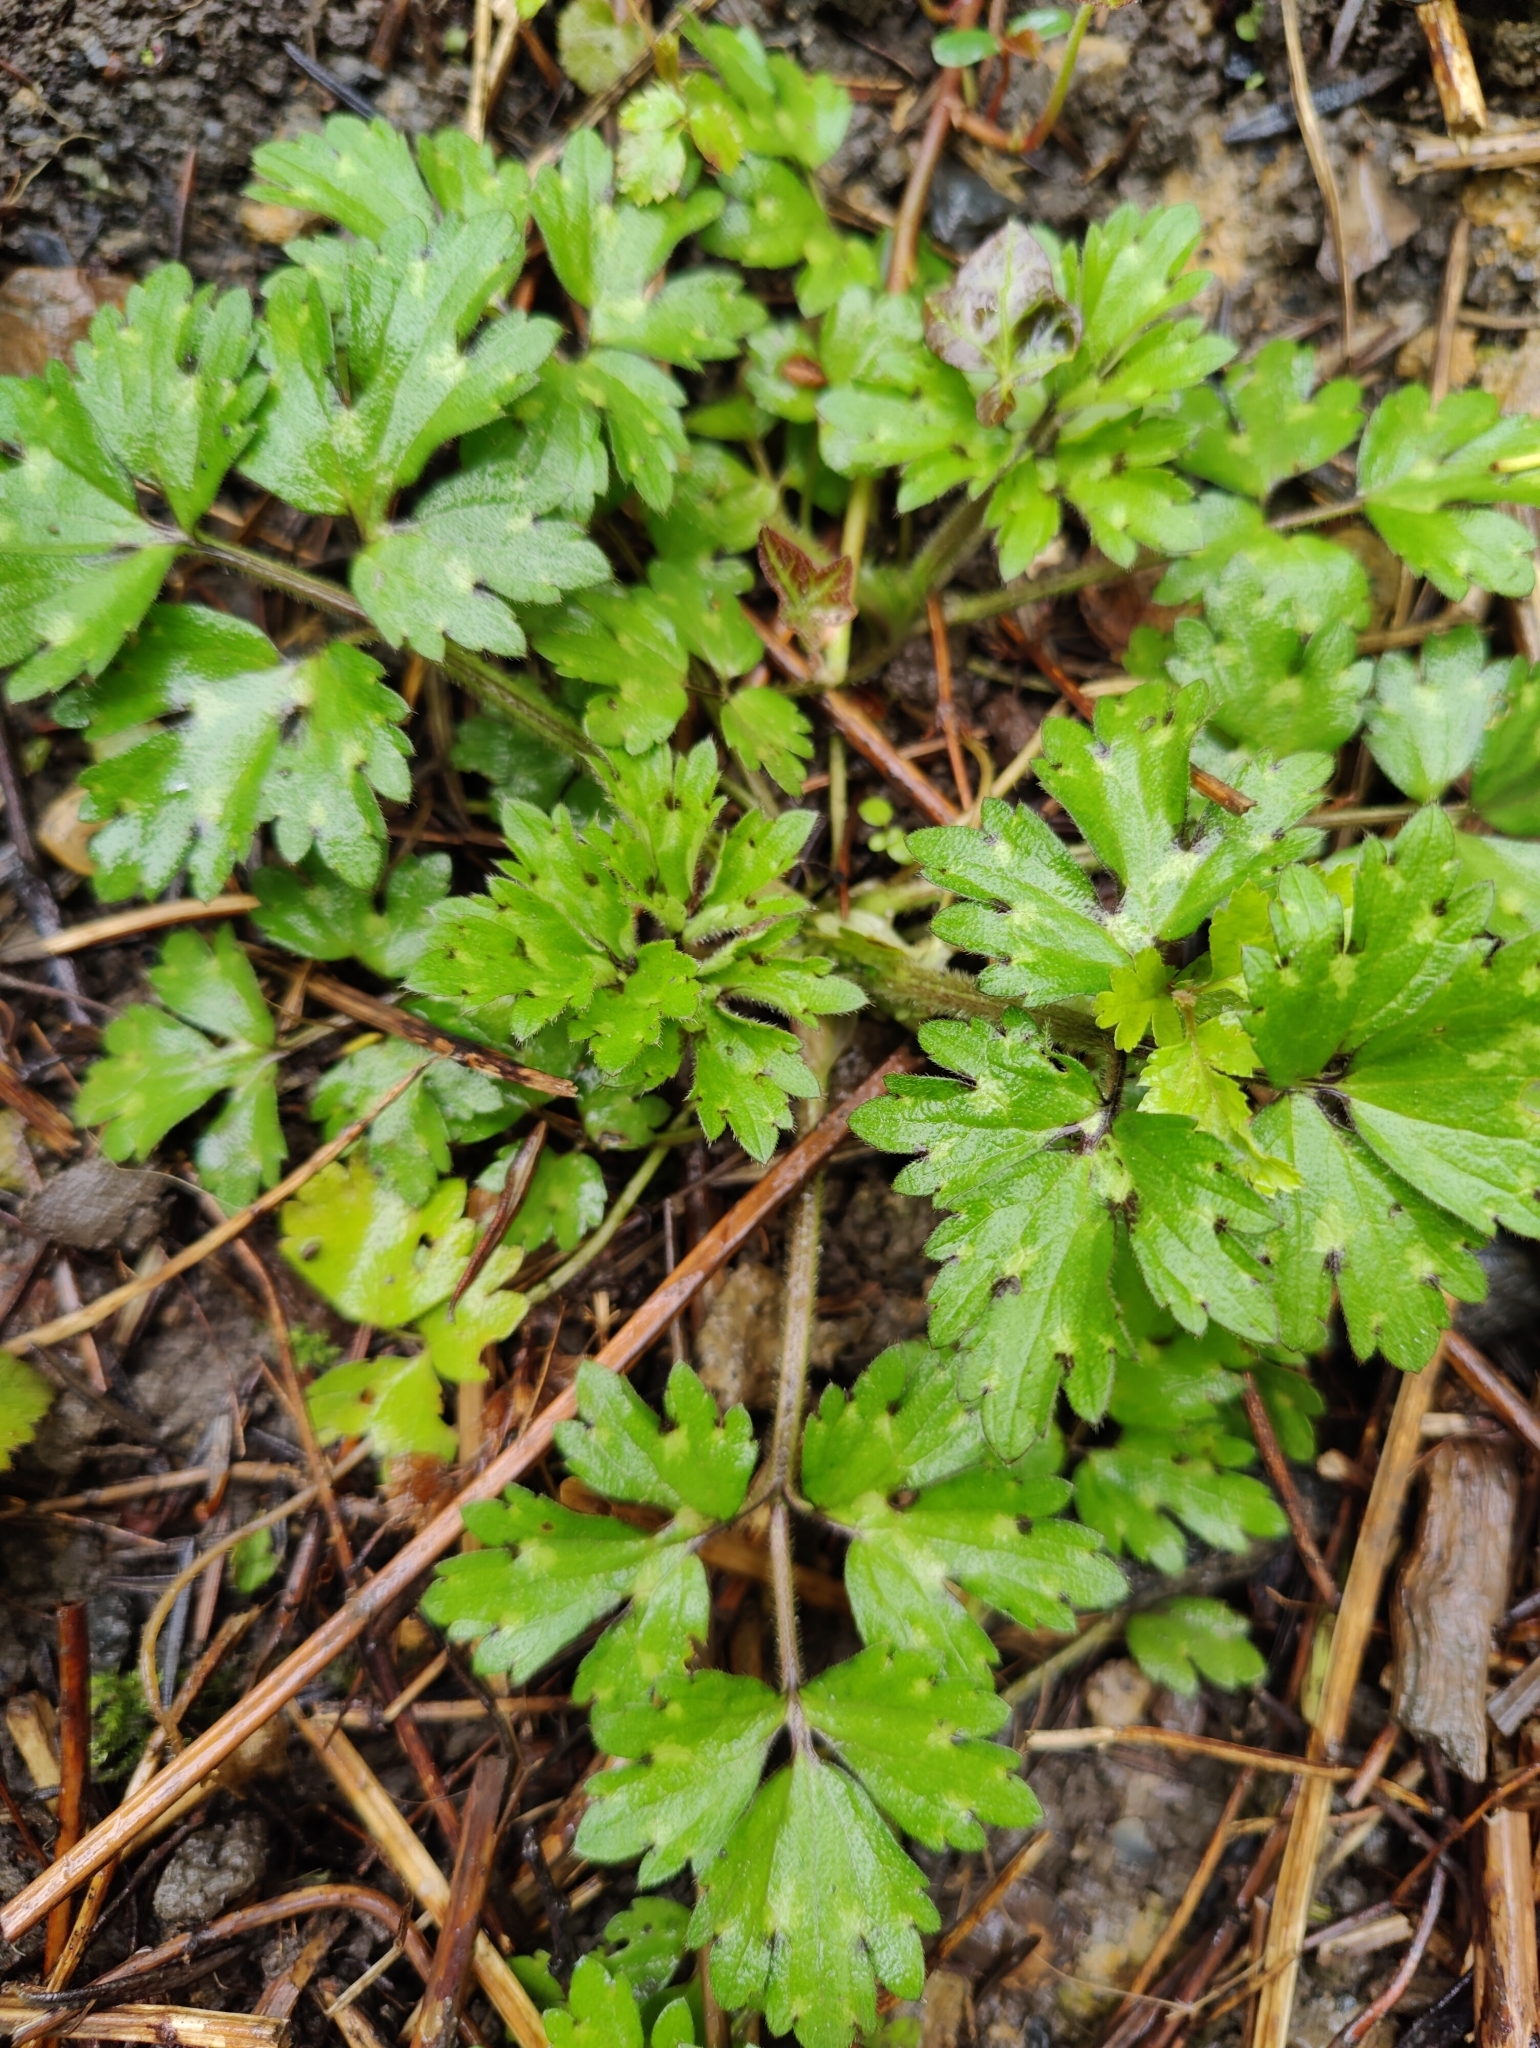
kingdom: Plantae
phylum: Tracheophyta
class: Magnoliopsida
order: Ranunculales
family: Ranunculaceae
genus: Ranunculus
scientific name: Ranunculus repens
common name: Creeping buttercup
